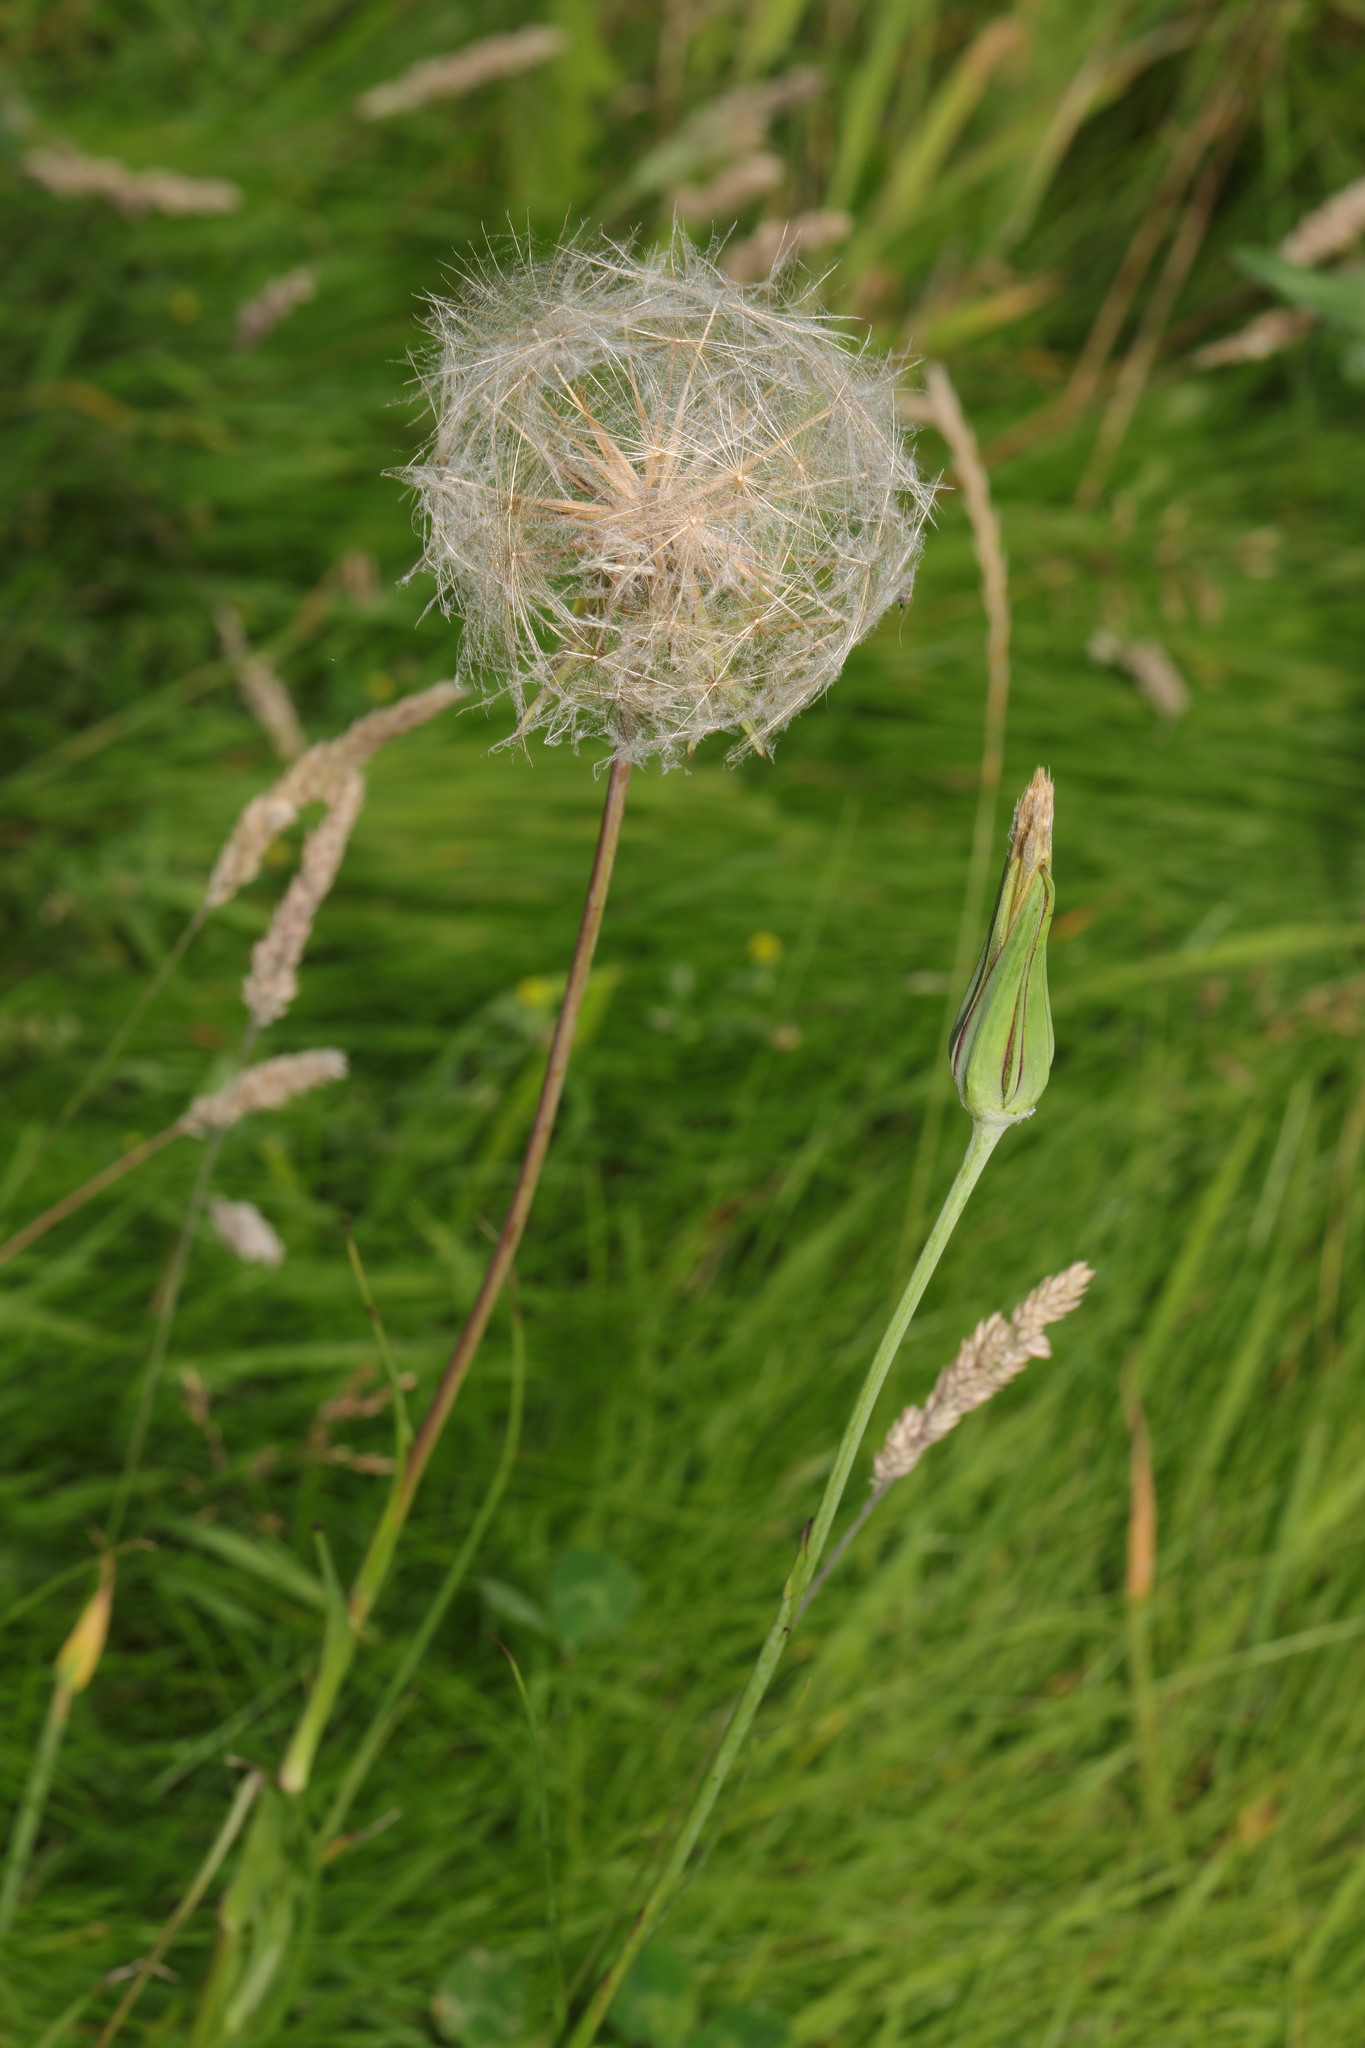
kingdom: Plantae
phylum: Tracheophyta
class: Magnoliopsida
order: Asterales
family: Asteraceae
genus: Tragopogon
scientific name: Tragopogon pratensis
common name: Goat's-beard
